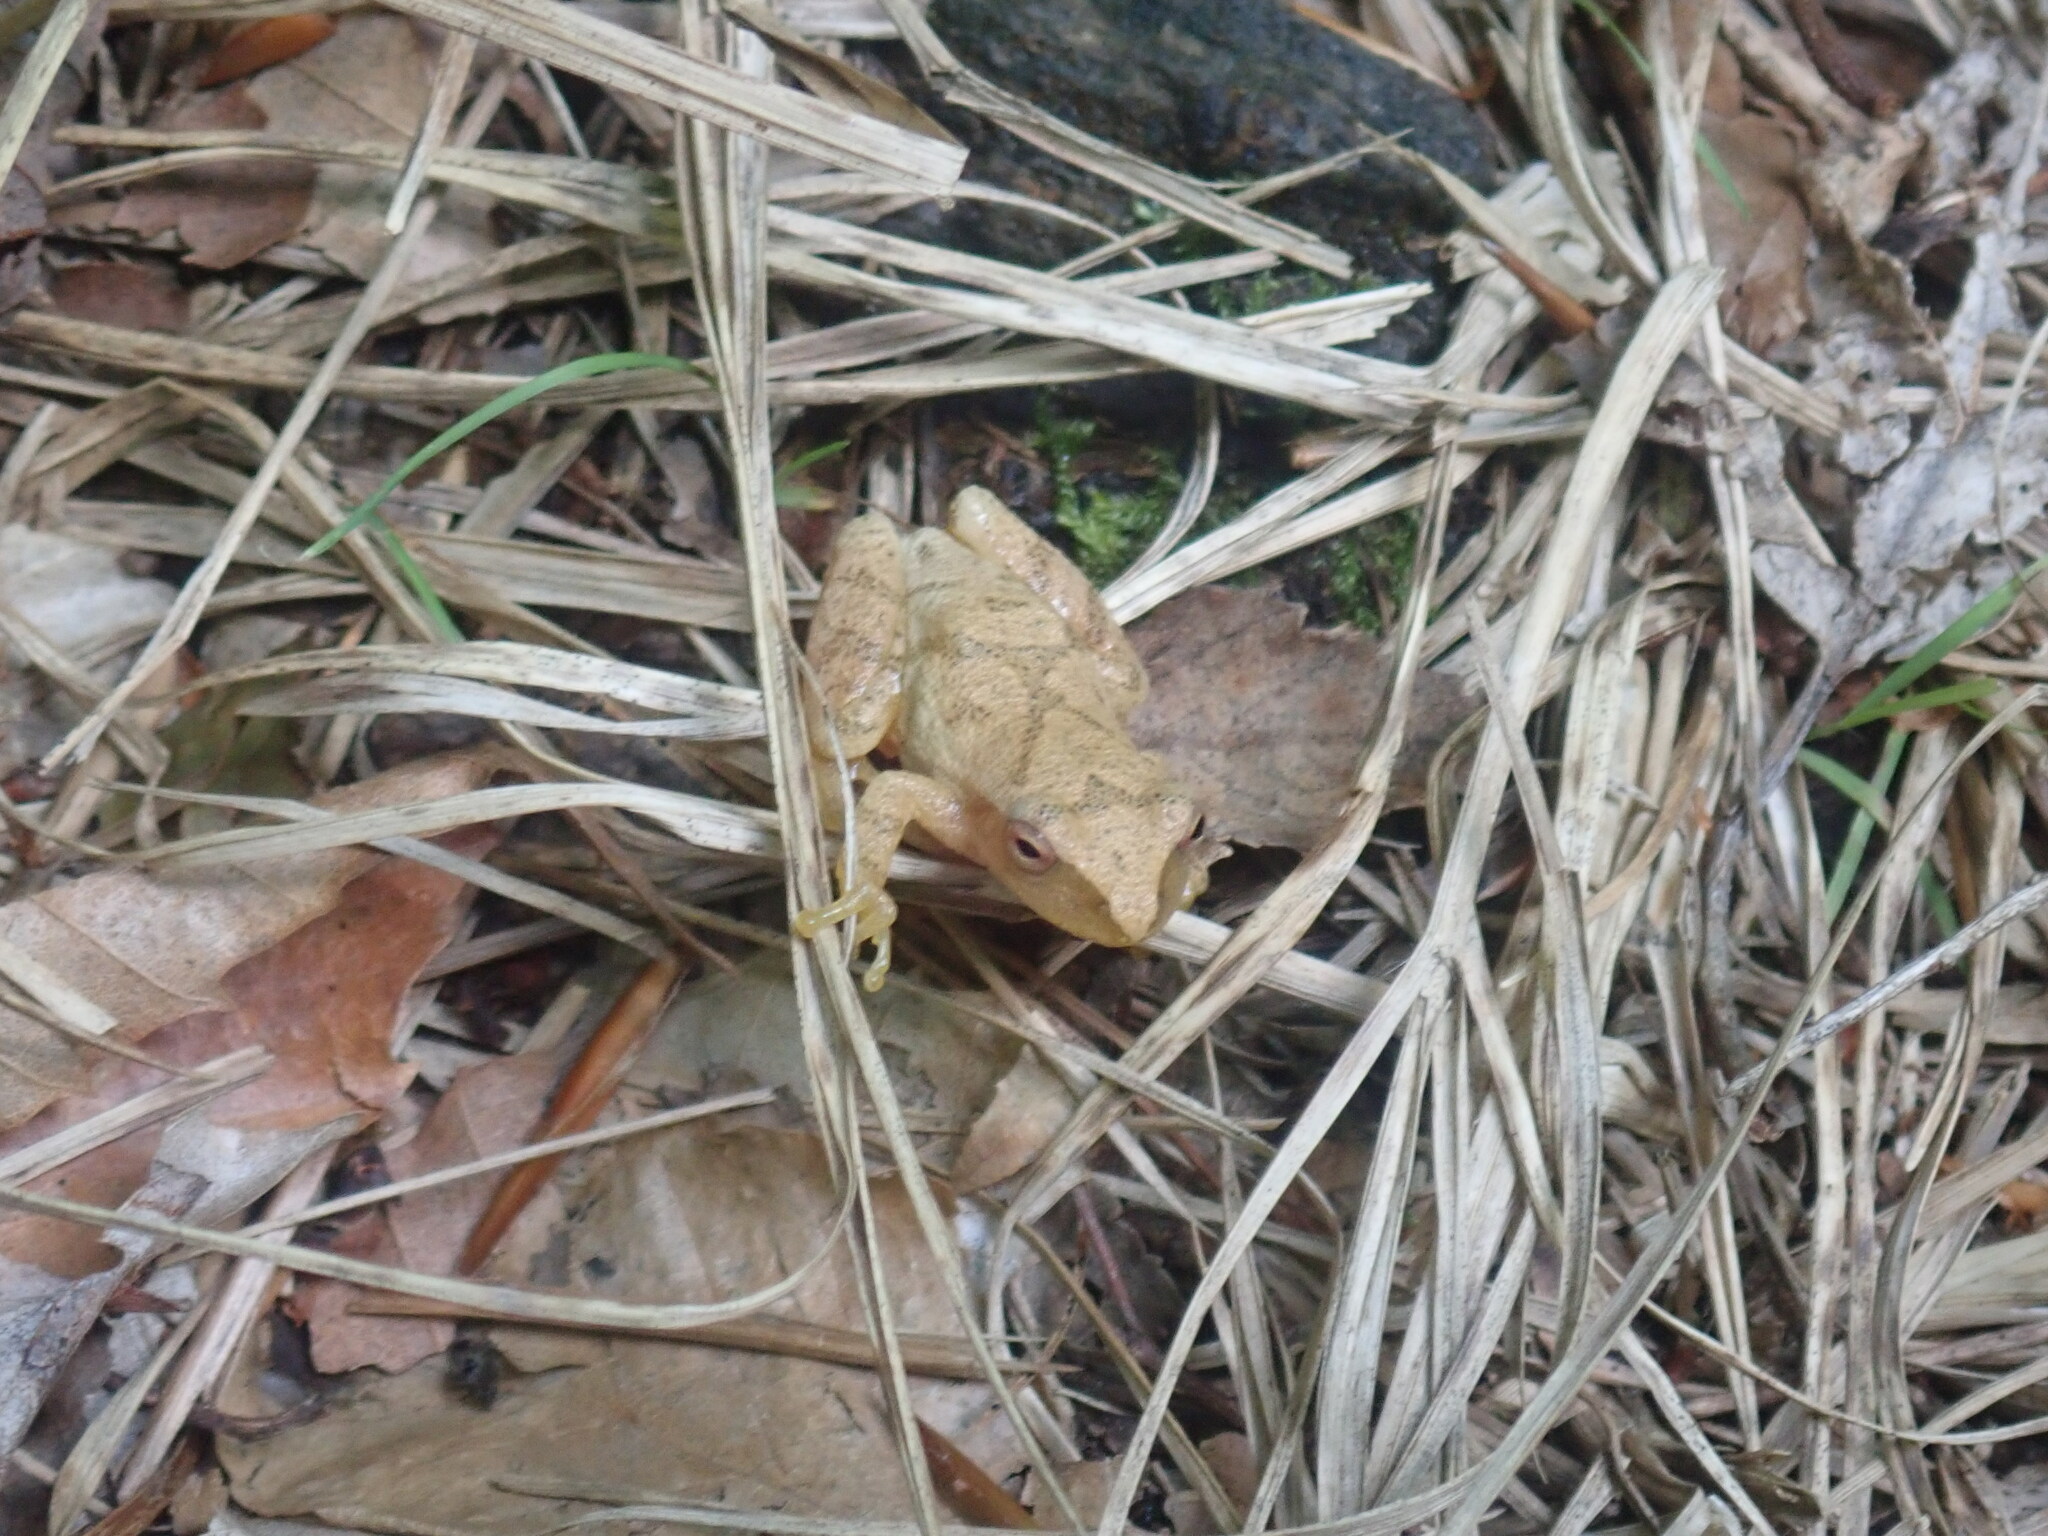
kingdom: Animalia
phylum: Chordata
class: Amphibia
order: Anura
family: Hylidae
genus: Pseudacris
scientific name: Pseudacris crucifer
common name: Spring peeper
